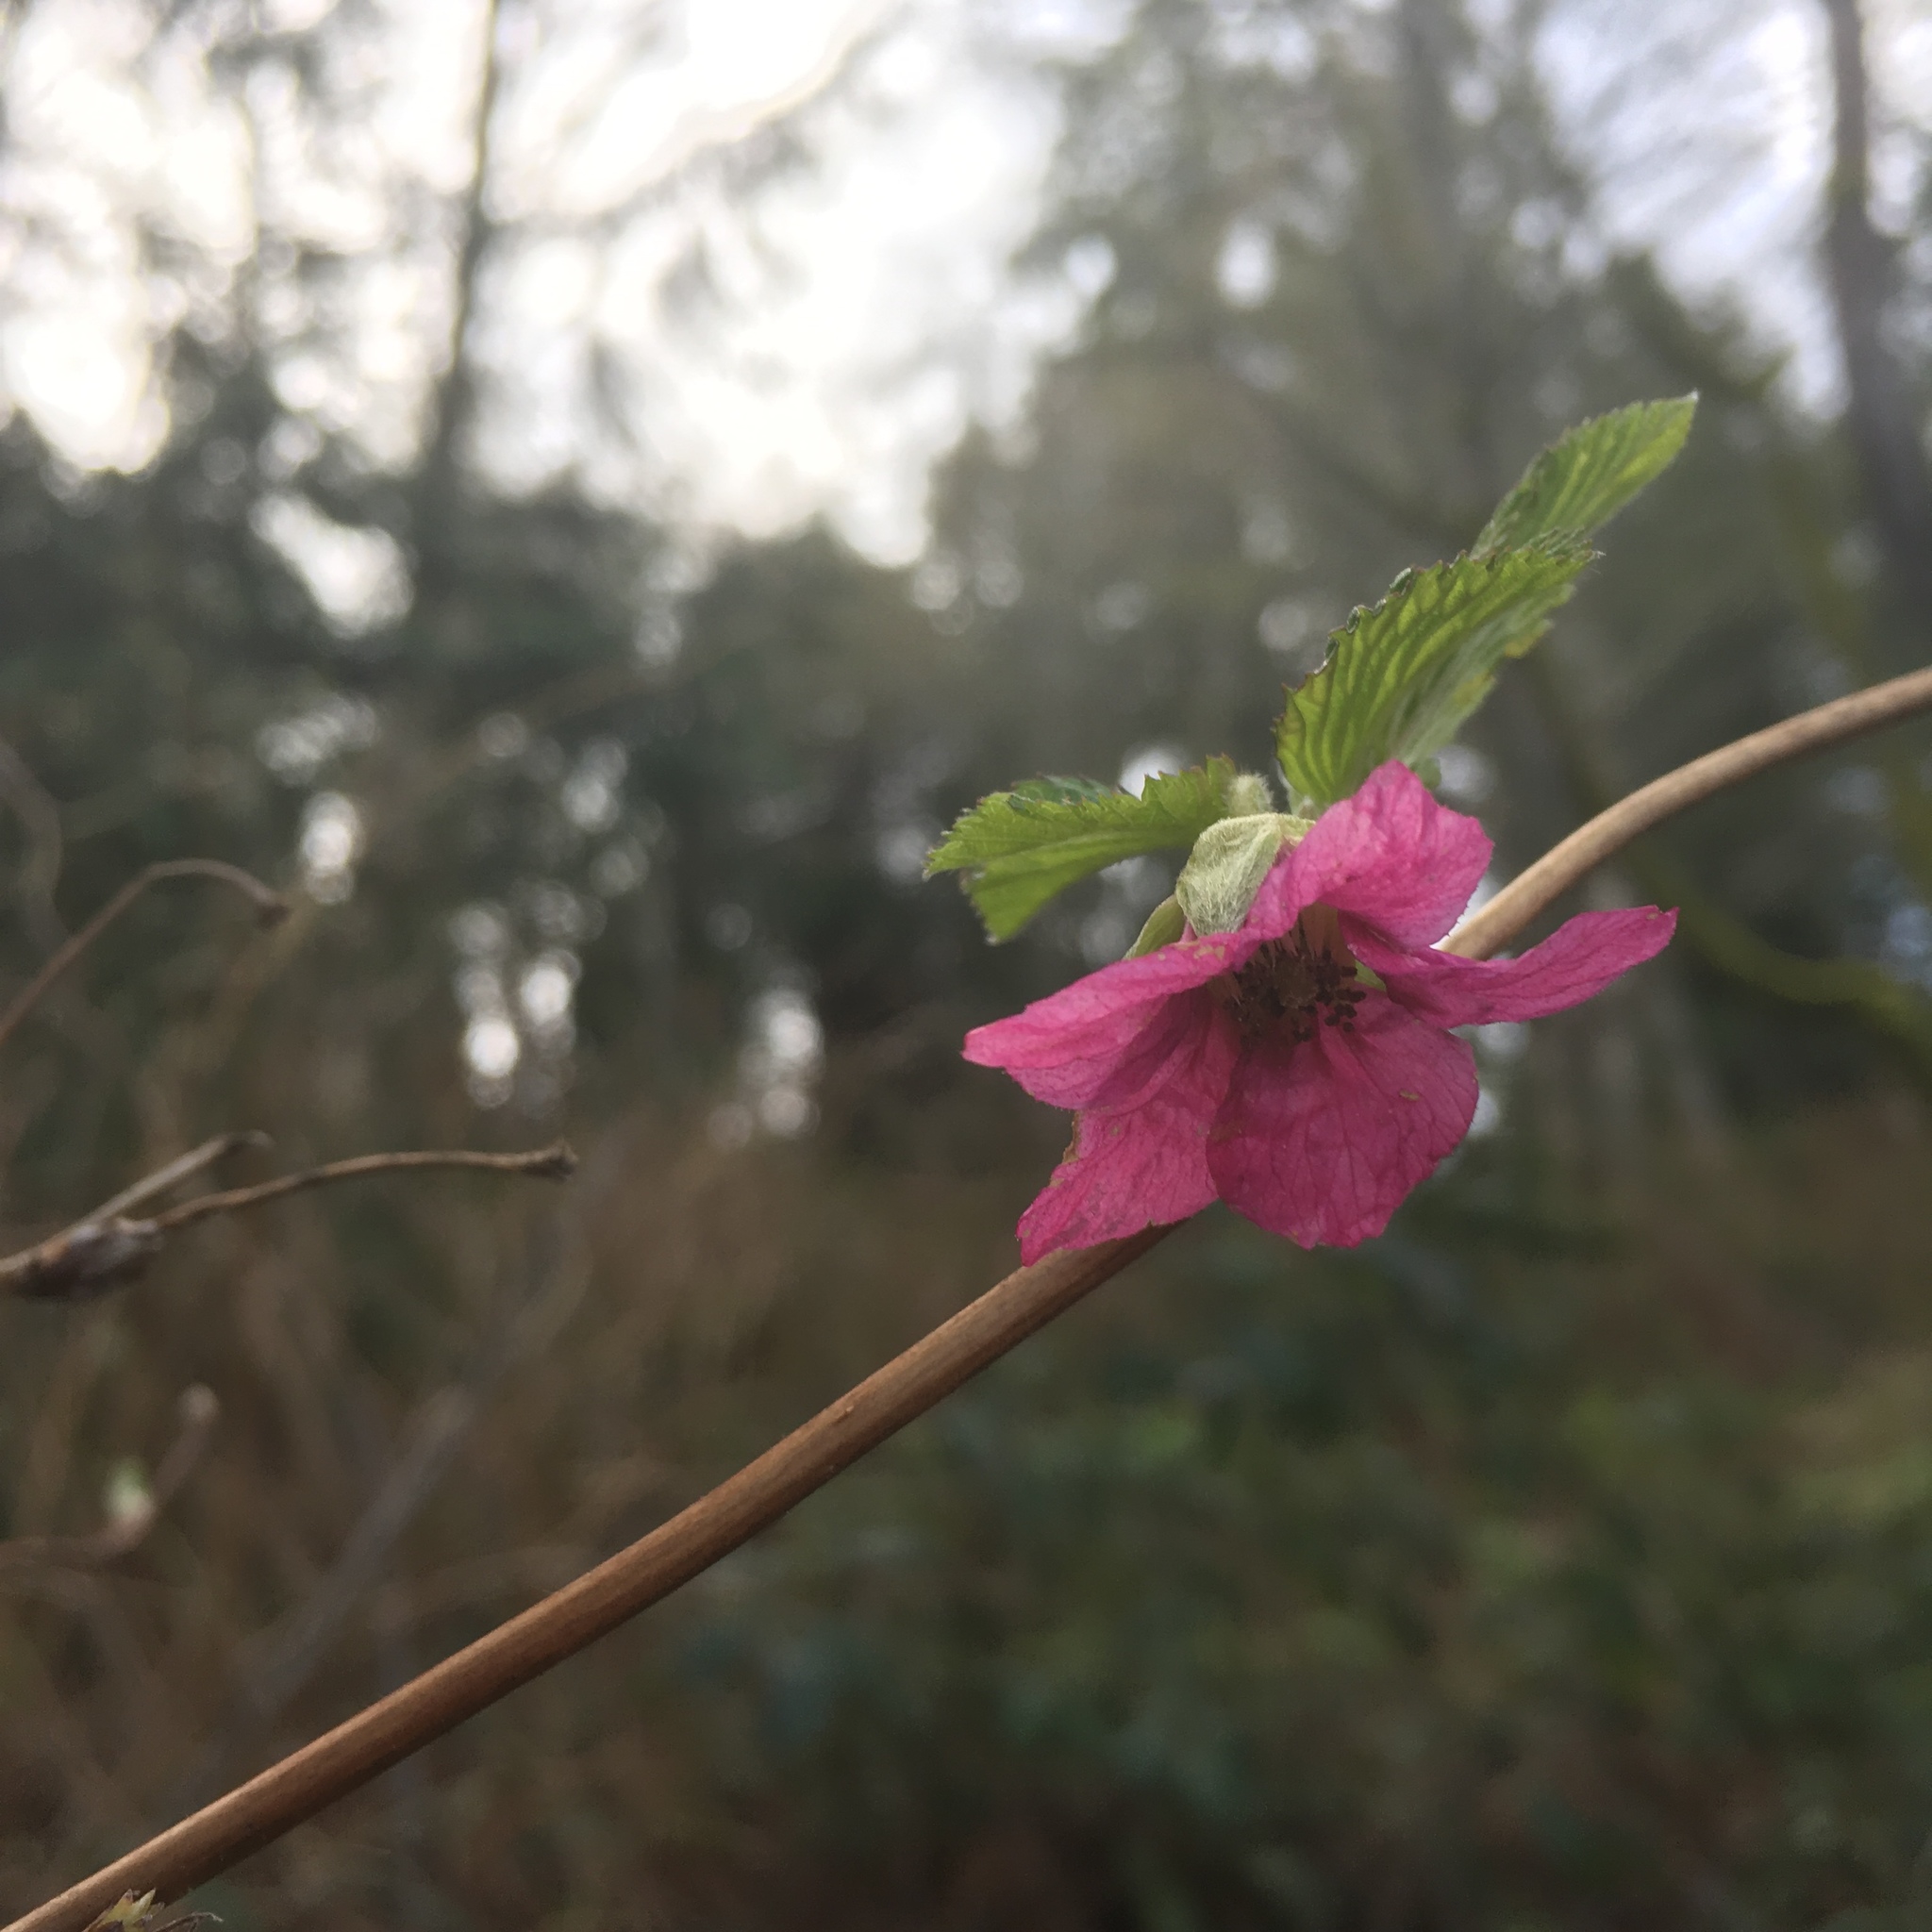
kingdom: Plantae
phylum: Tracheophyta
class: Magnoliopsida
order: Rosales
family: Rosaceae
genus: Rubus
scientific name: Rubus spectabilis
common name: Salmonberry
